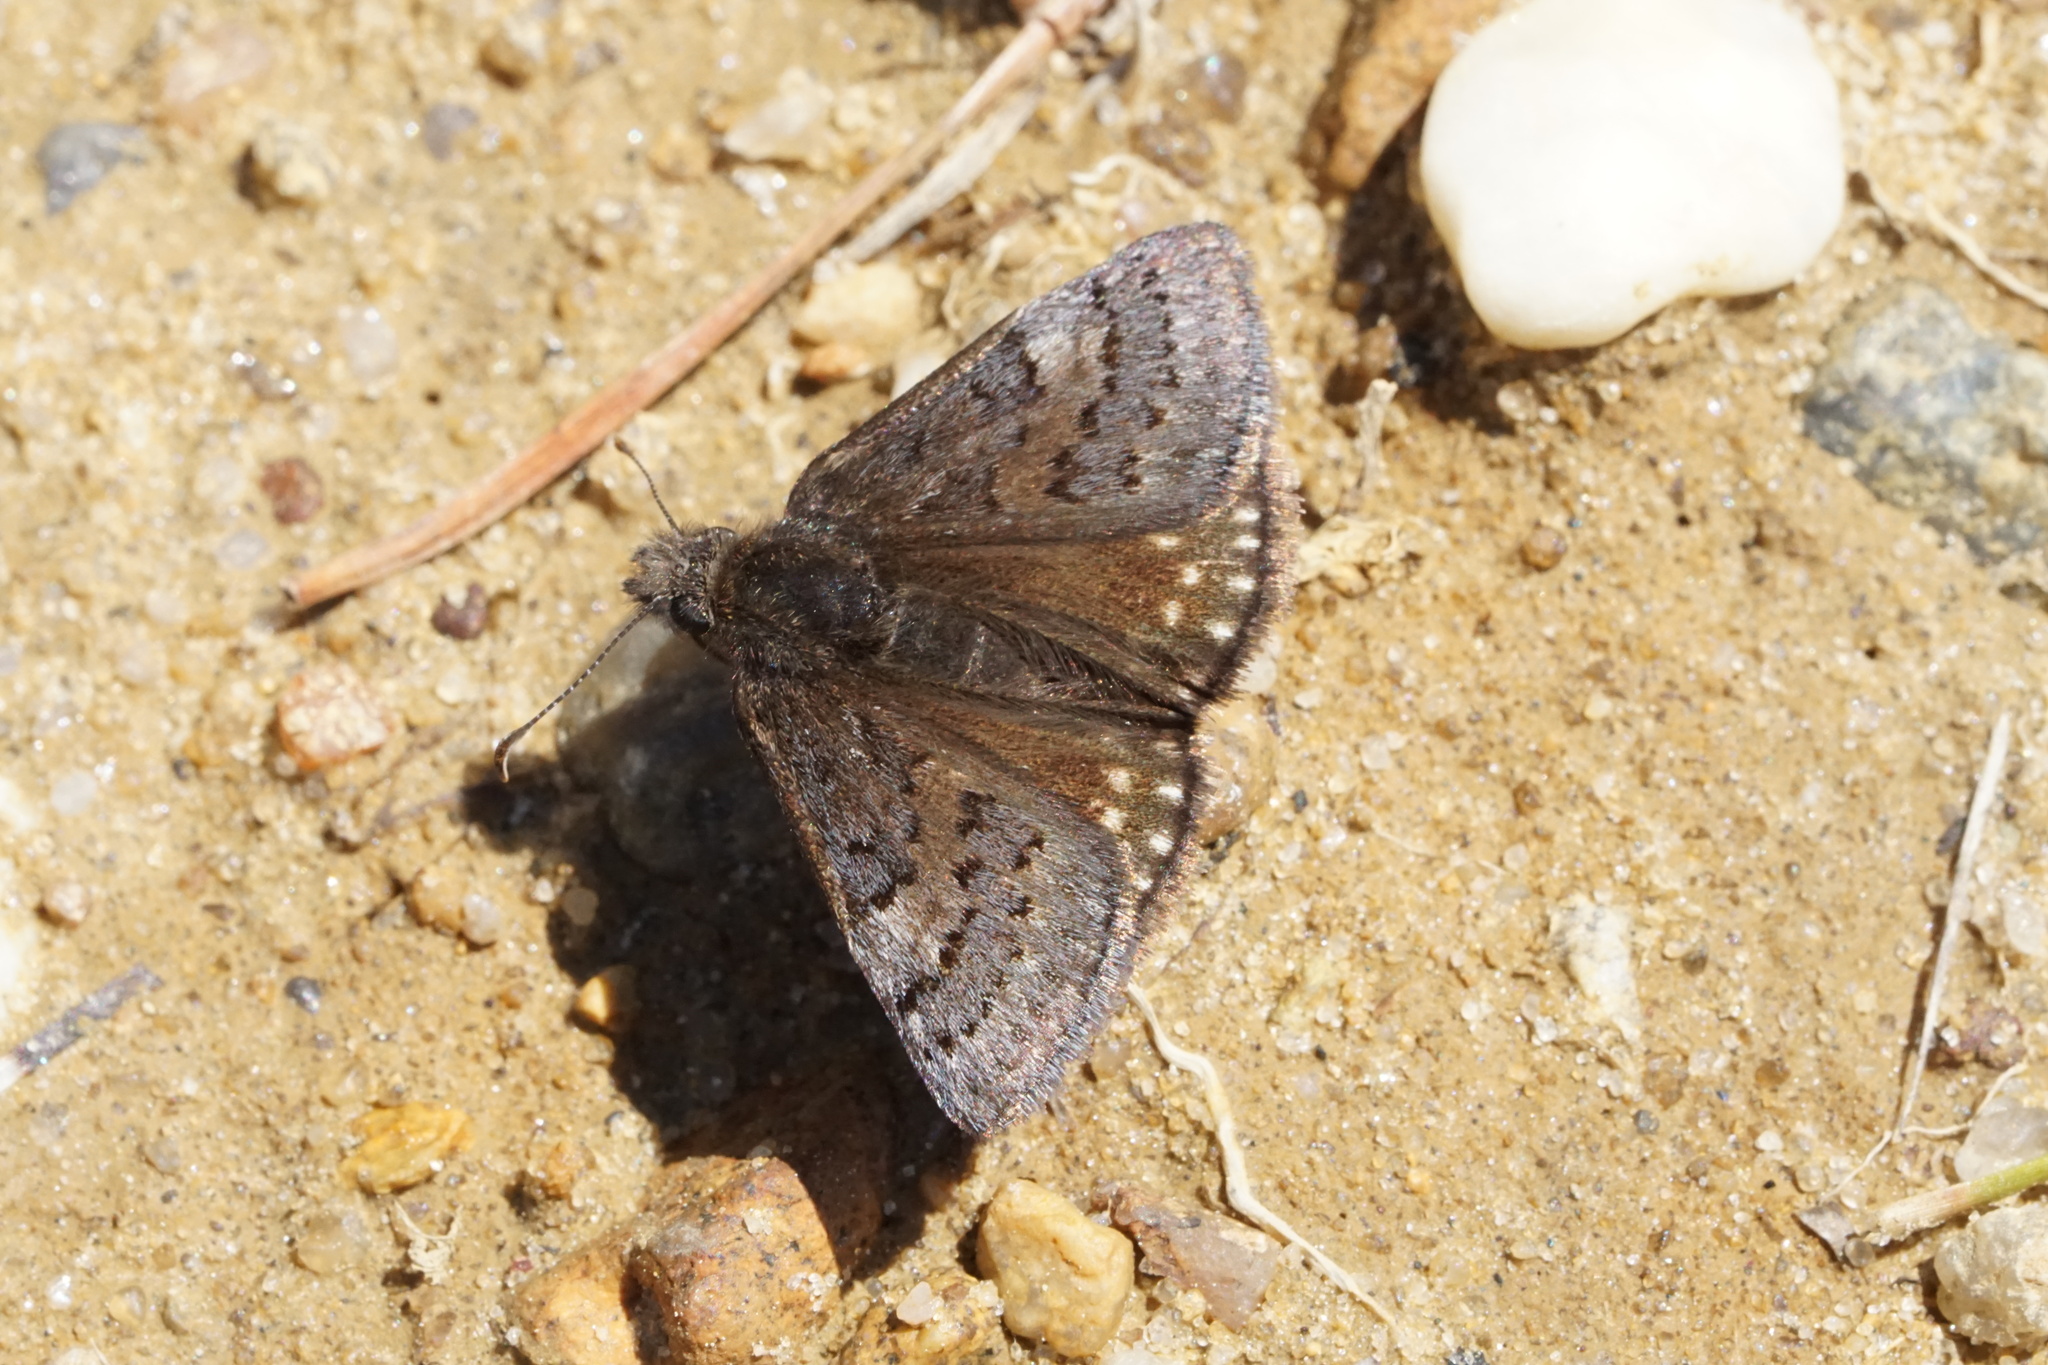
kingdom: Animalia
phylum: Arthropoda
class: Insecta
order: Lepidoptera
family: Hesperiidae
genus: Erynnis
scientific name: Erynnis brizo
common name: Sleepy duskywing
